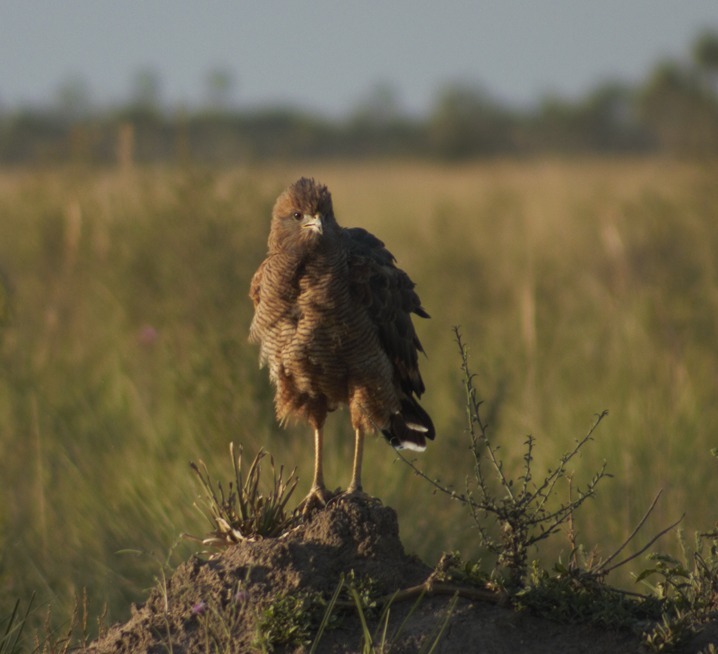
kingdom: Animalia
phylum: Chordata
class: Aves
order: Accipitriformes
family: Accipitridae
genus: Buteogallus
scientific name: Buteogallus meridionalis
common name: Savanna hawk
